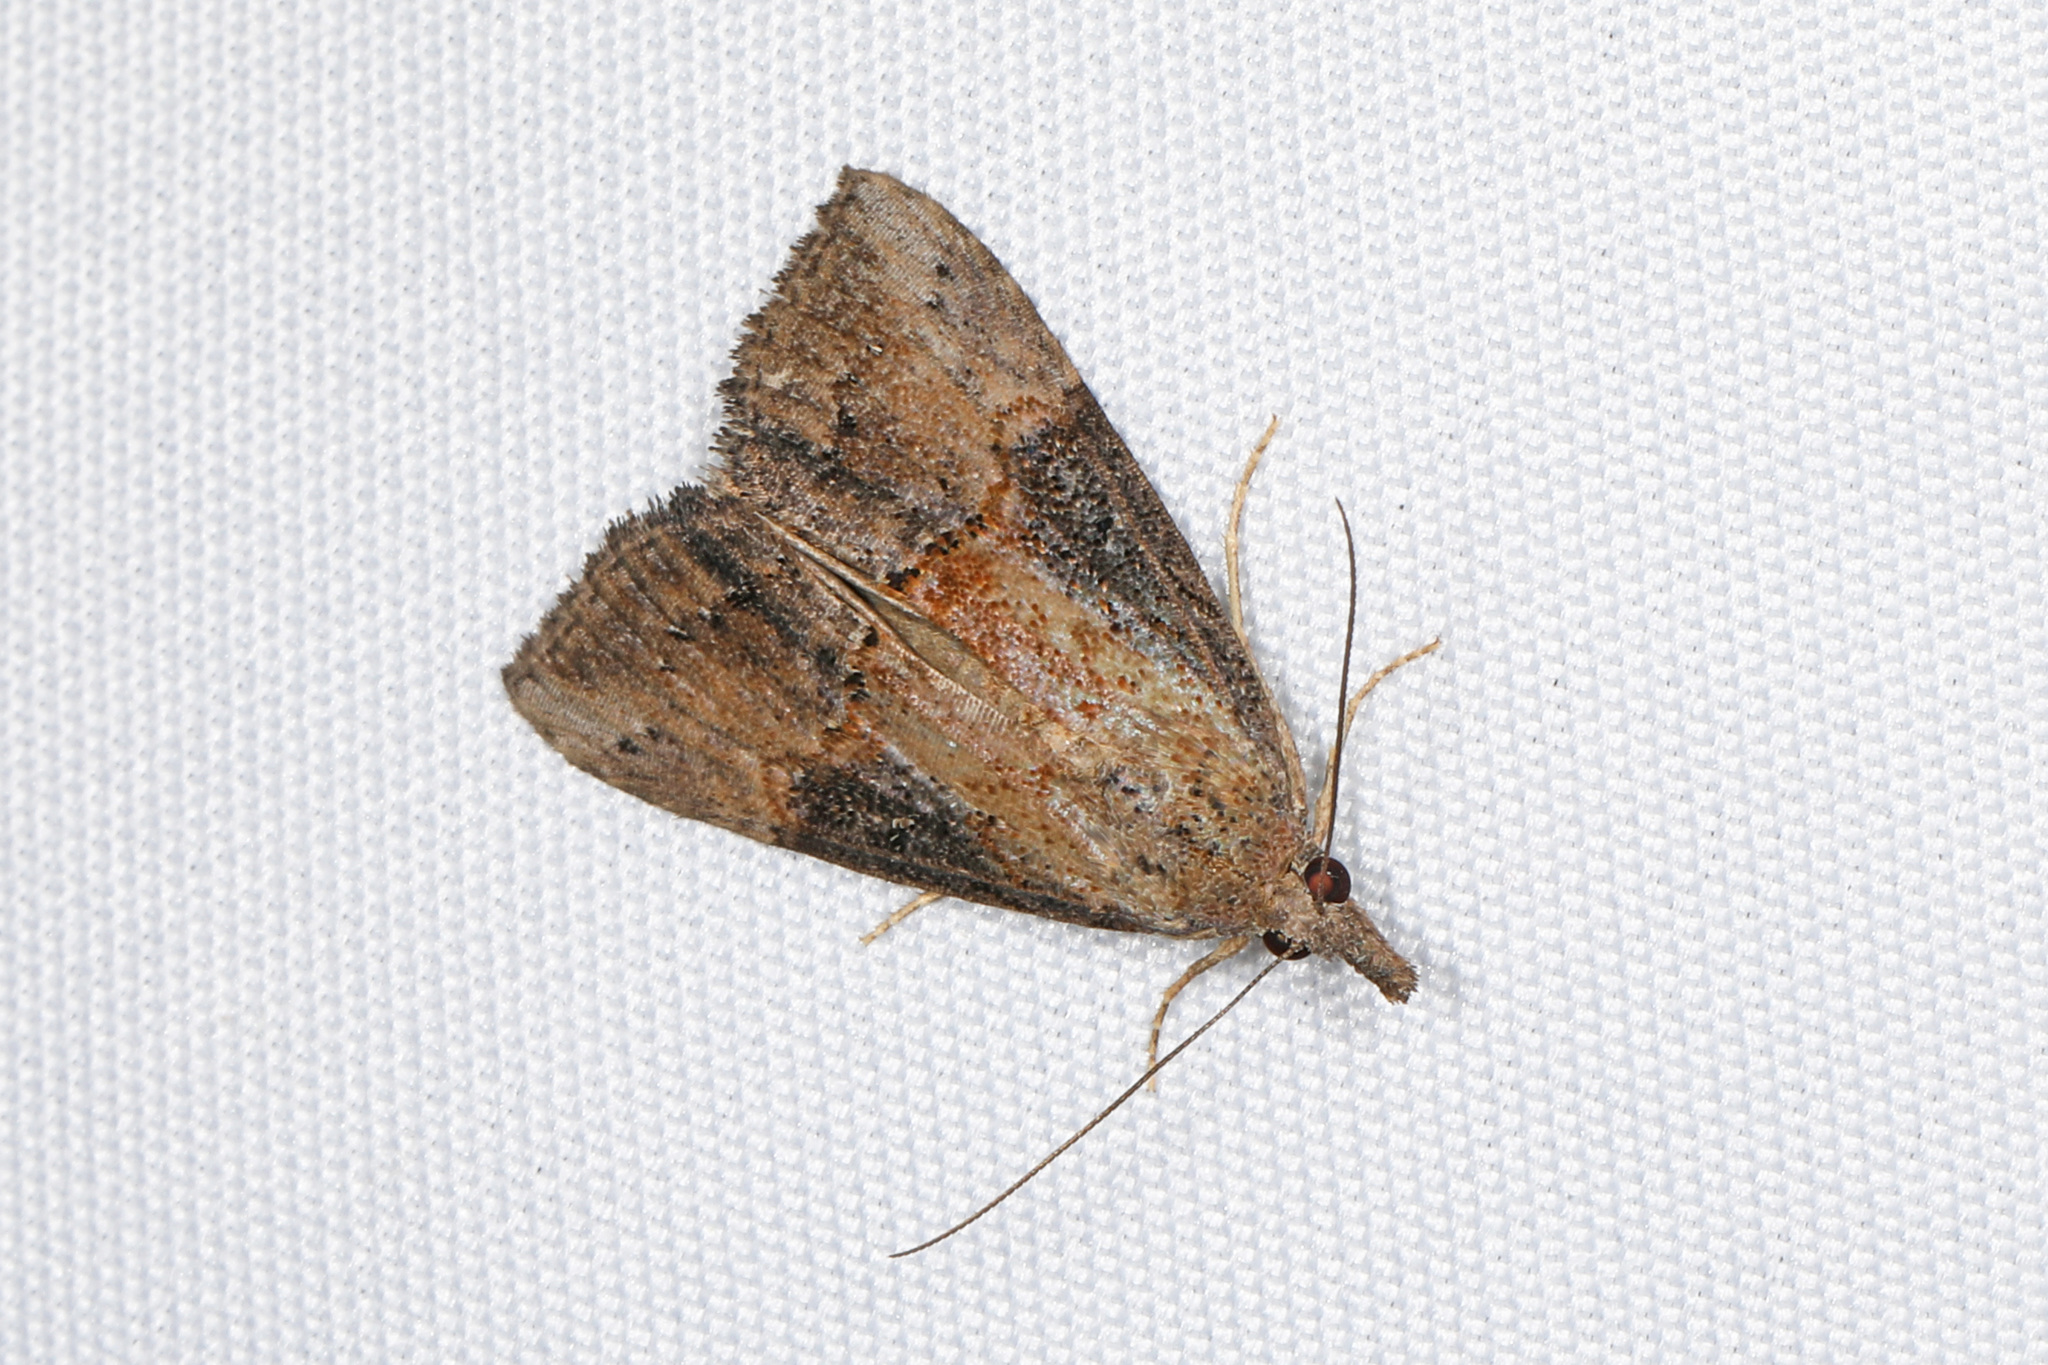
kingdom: Animalia
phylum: Arthropoda
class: Insecta
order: Lepidoptera
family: Erebidae
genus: Hypena
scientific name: Hypena scabra
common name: Green cloverworm
